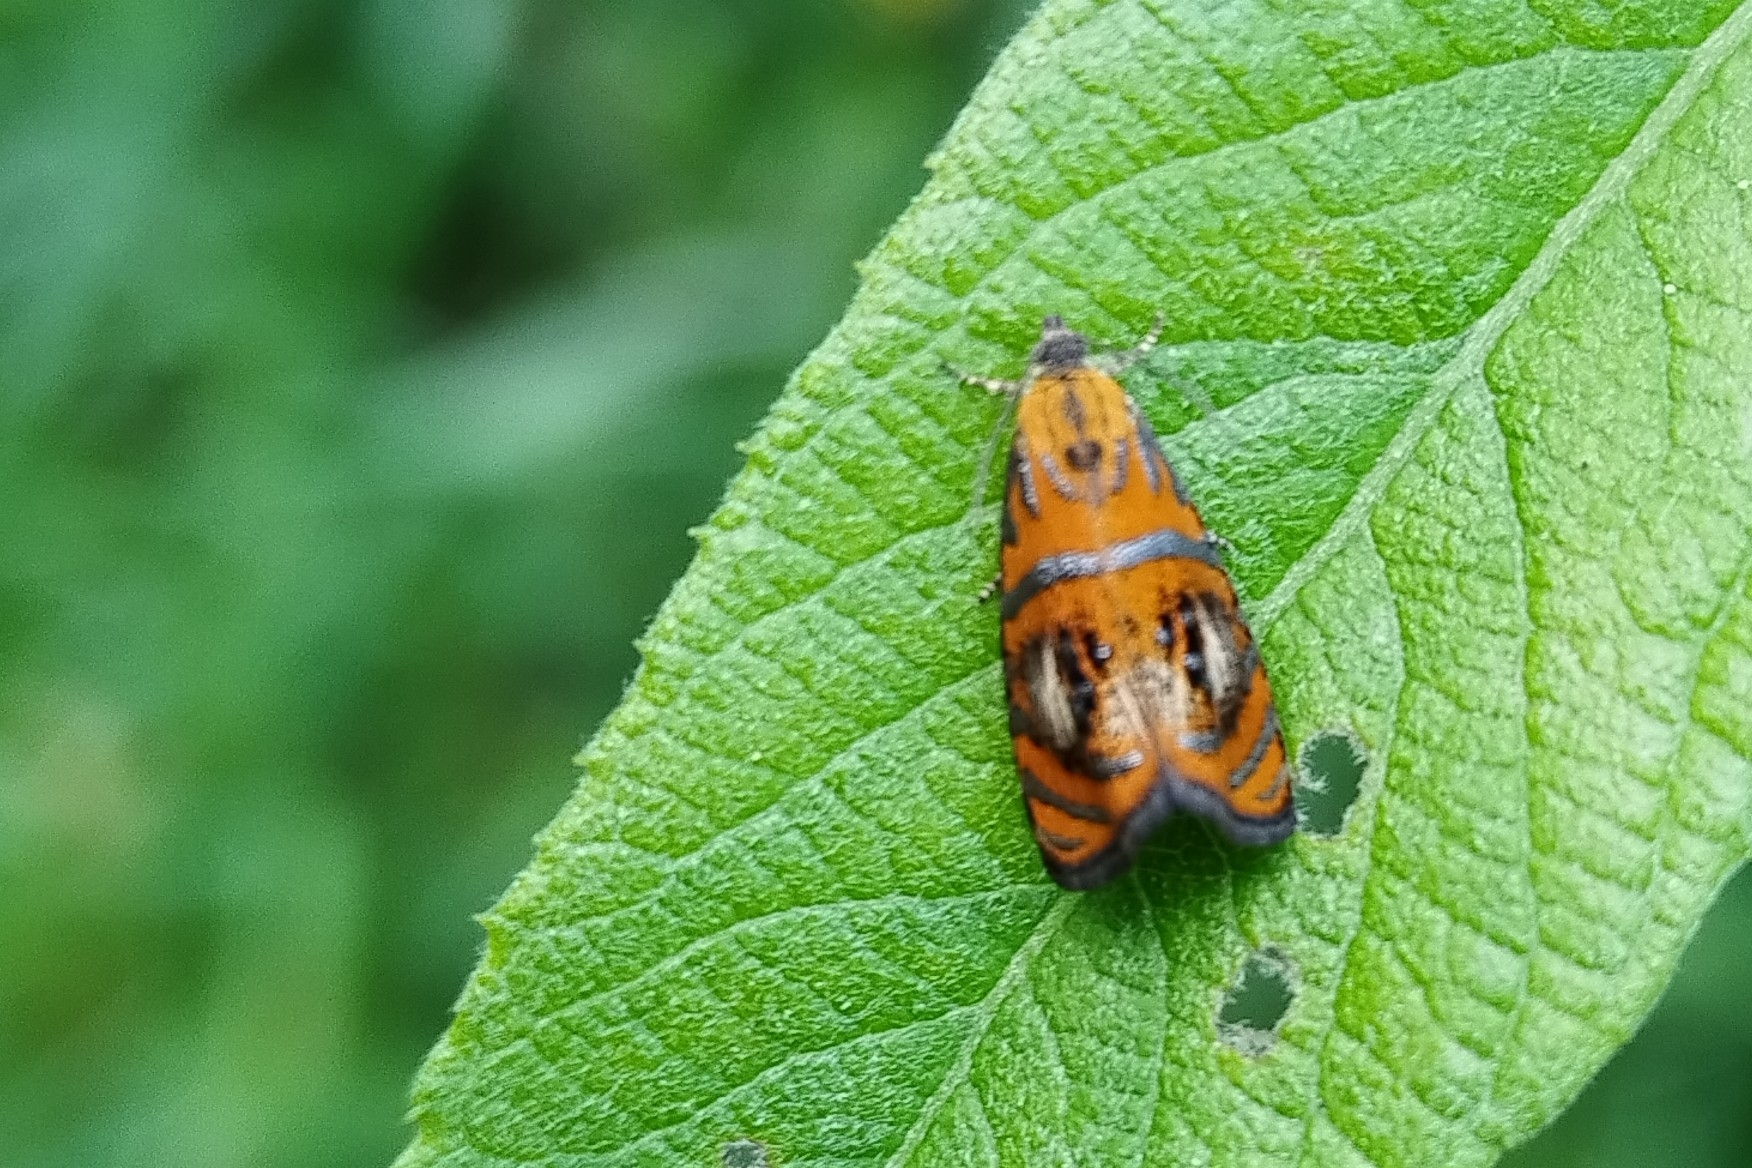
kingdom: Animalia
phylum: Arthropoda
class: Insecta
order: Lepidoptera
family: Tortricidae
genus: Olethreutes
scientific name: Olethreutes arcuella
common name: Arched marble
